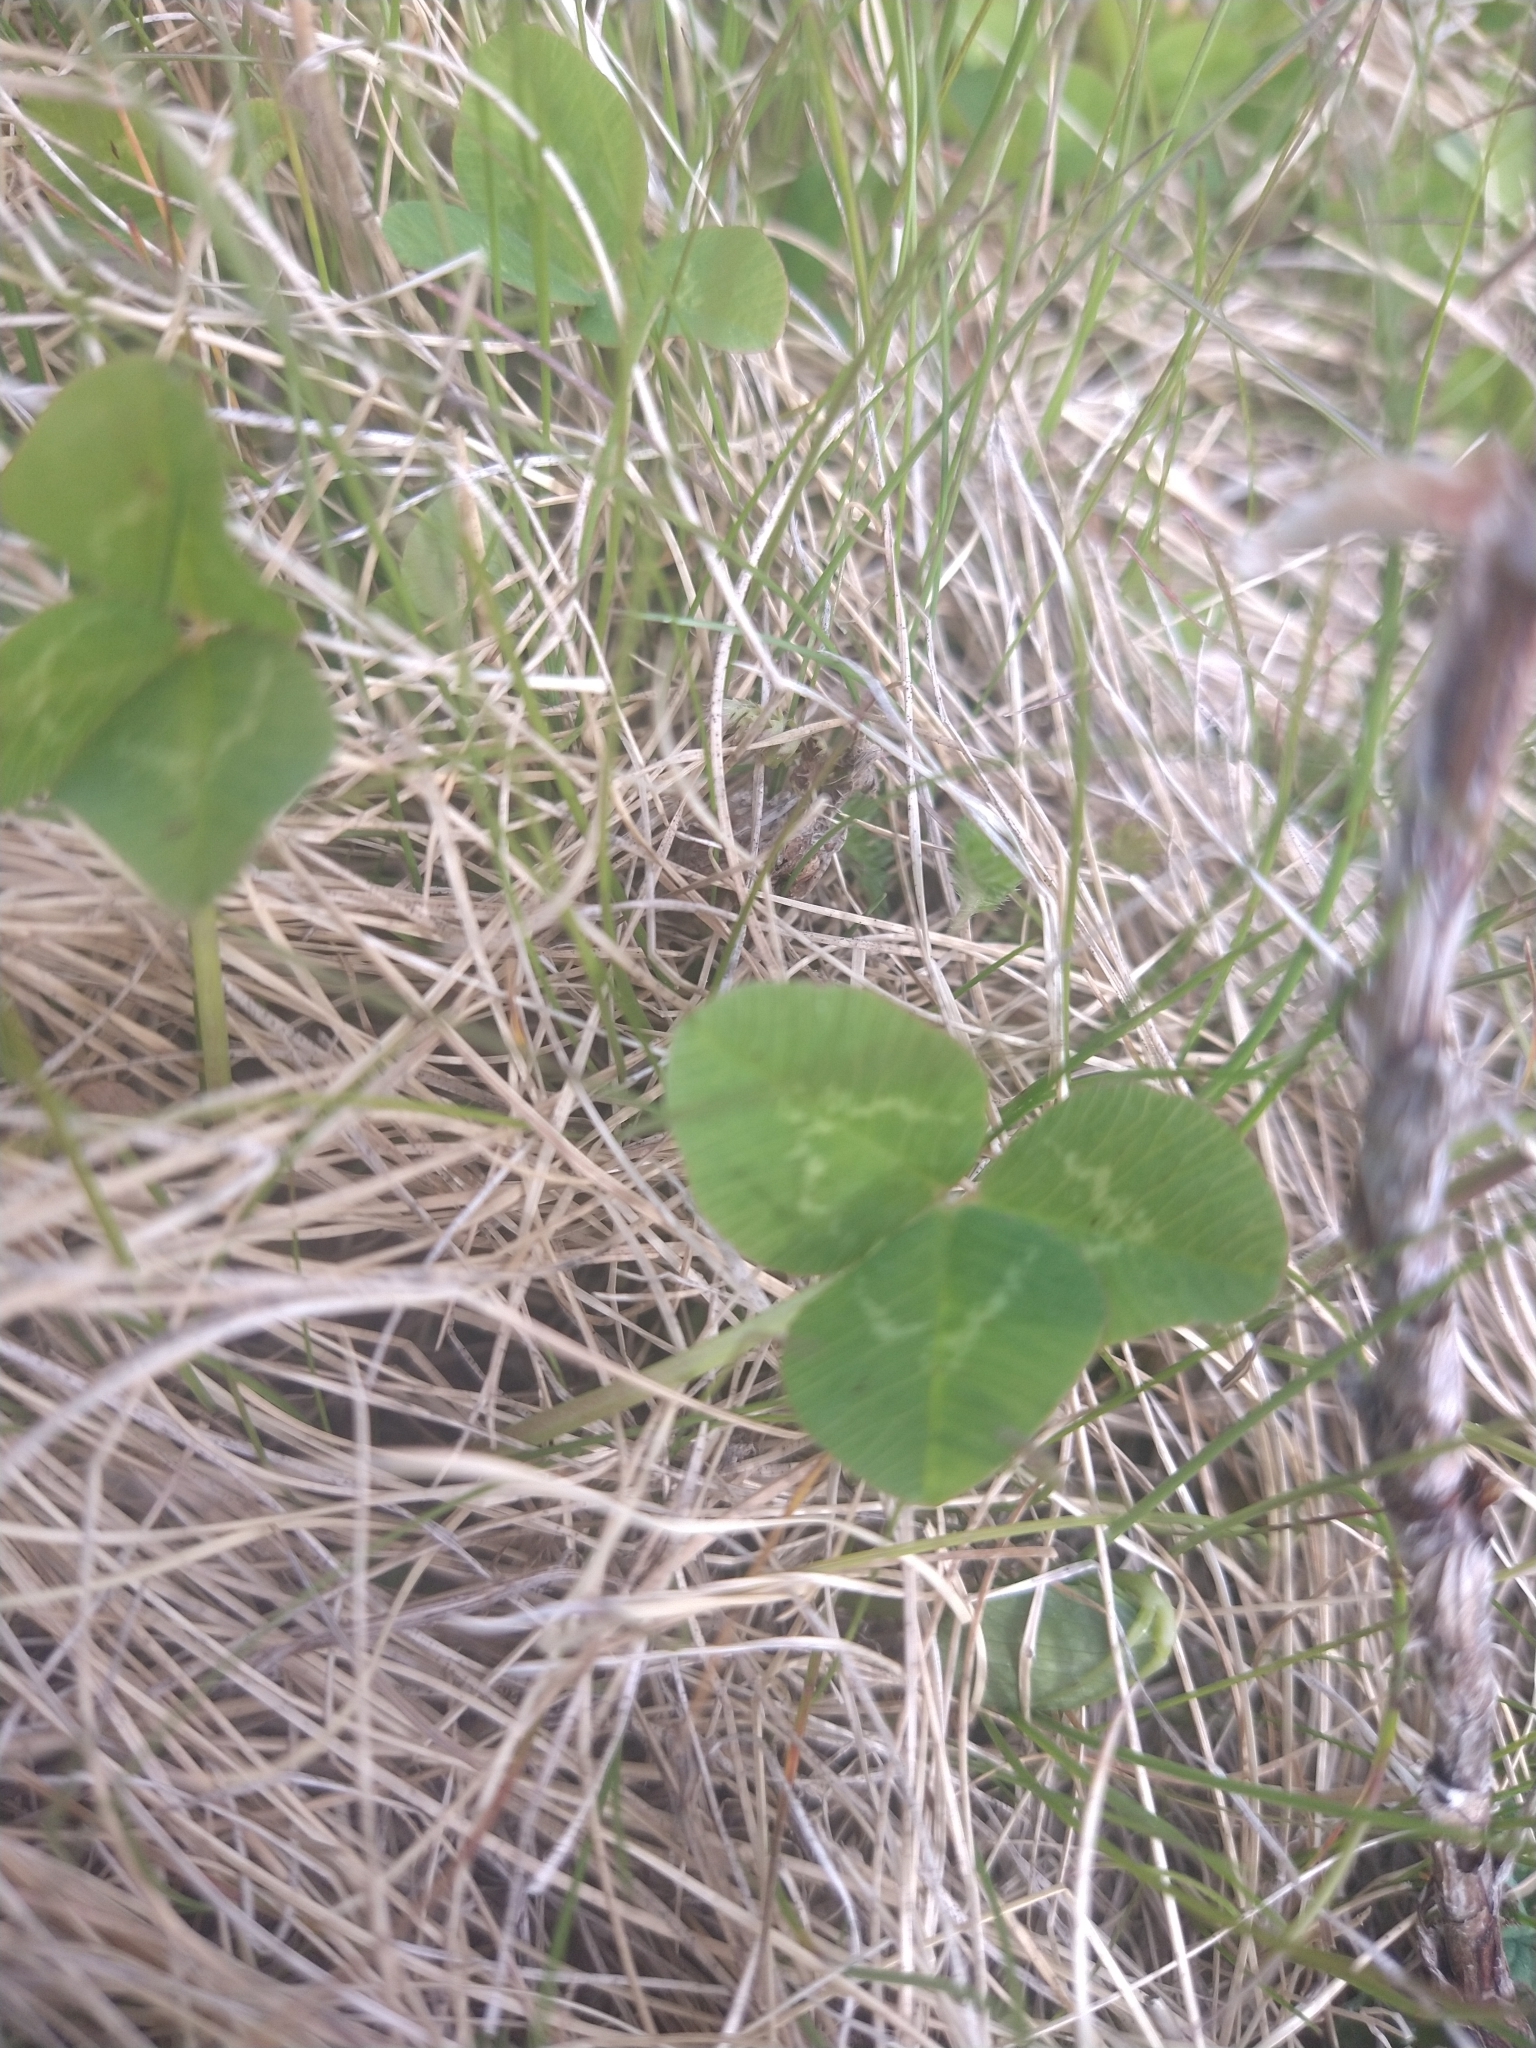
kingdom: Plantae
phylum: Tracheophyta
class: Magnoliopsida
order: Fabales
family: Fabaceae
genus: Trifolium
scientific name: Trifolium repens
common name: White clover
